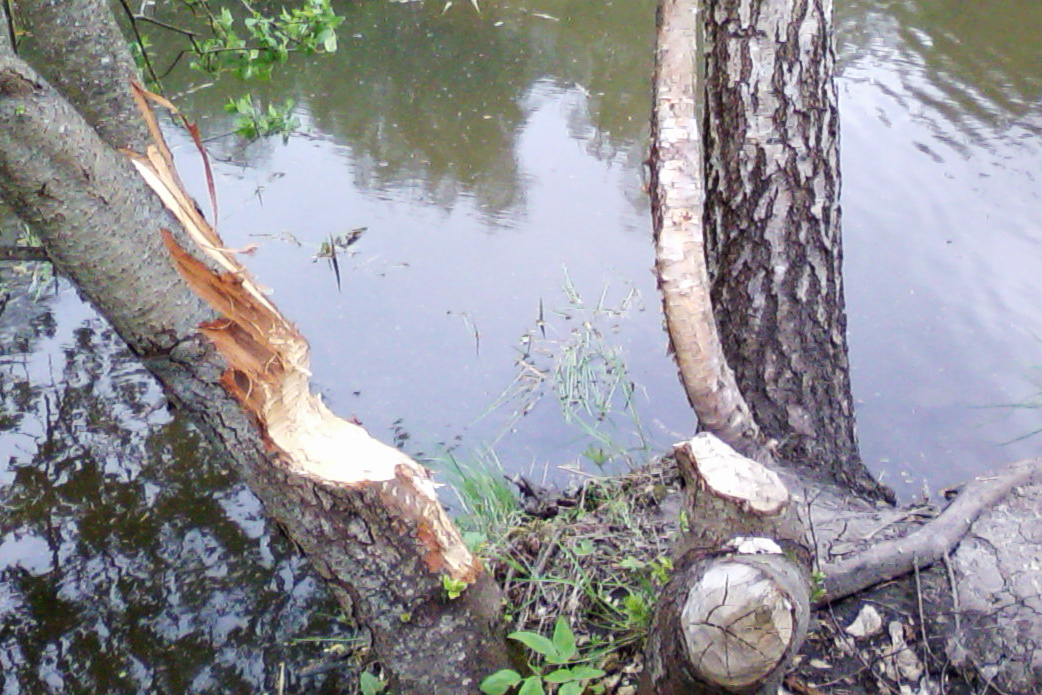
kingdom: Animalia
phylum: Chordata
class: Mammalia
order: Rodentia
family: Castoridae
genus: Castor
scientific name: Castor fiber
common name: Eurasian beaver
